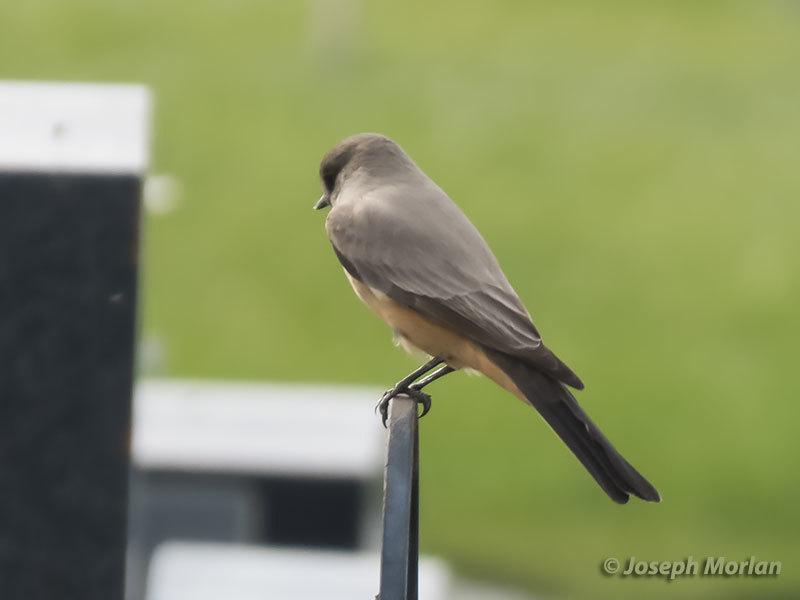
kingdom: Animalia
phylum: Chordata
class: Aves
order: Passeriformes
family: Tyrannidae
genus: Sayornis
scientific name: Sayornis saya
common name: Say's phoebe
